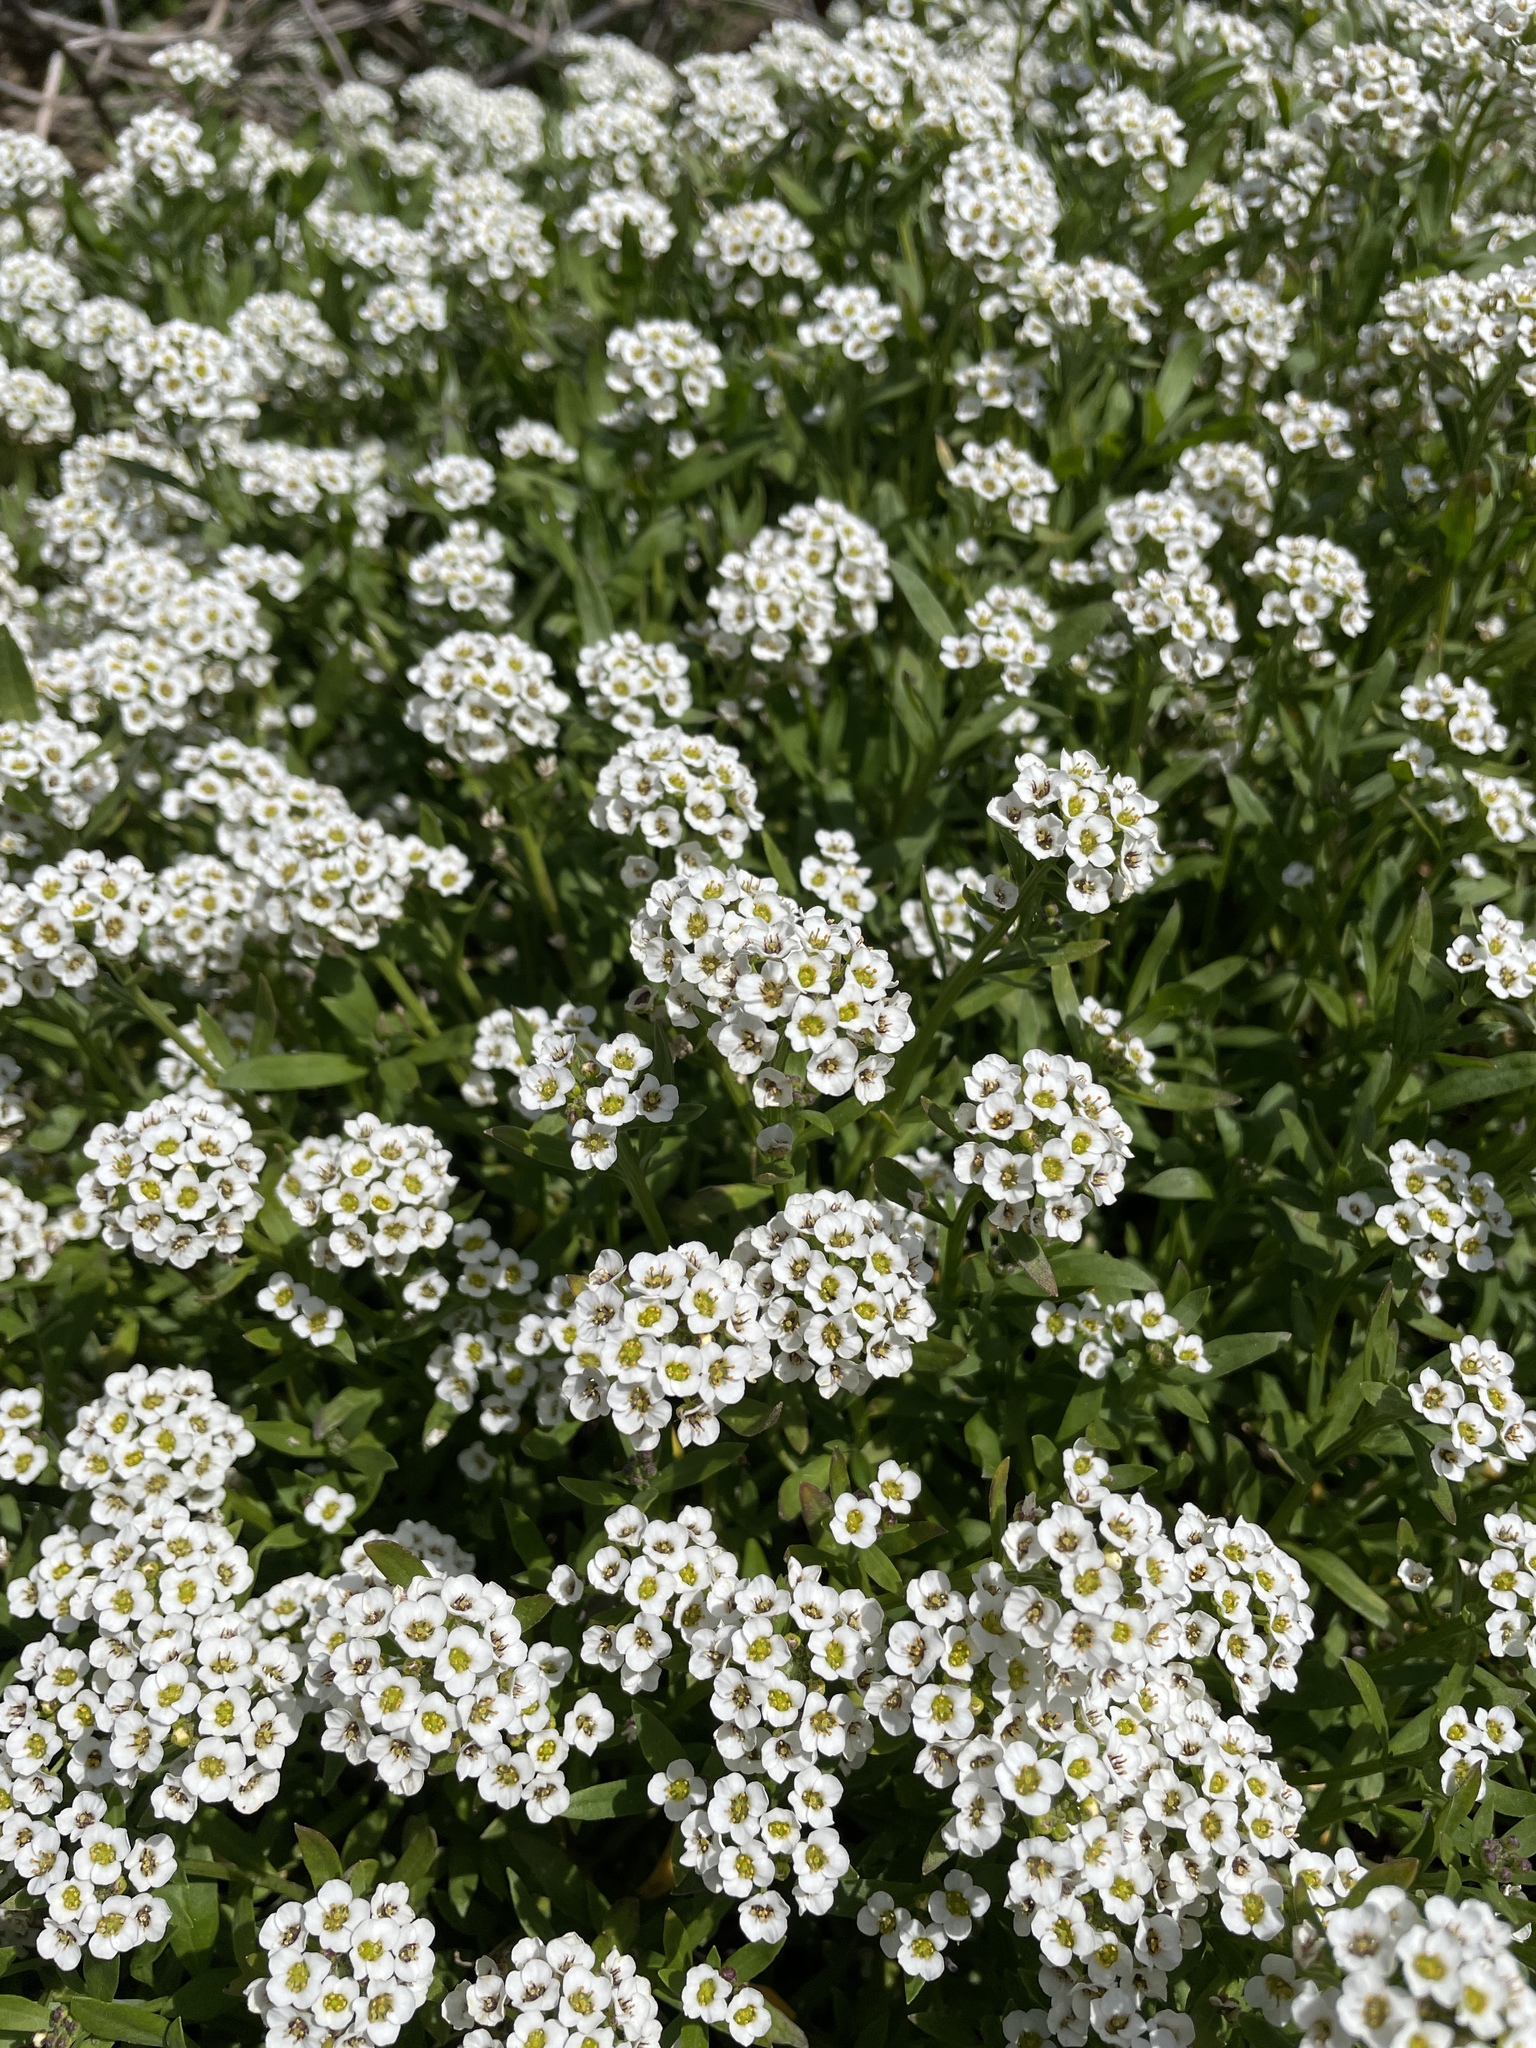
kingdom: Plantae
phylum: Tracheophyta
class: Magnoliopsida
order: Brassicales
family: Brassicaceae
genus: Lobularia
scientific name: Lobularia maritima
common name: Sweet alison
